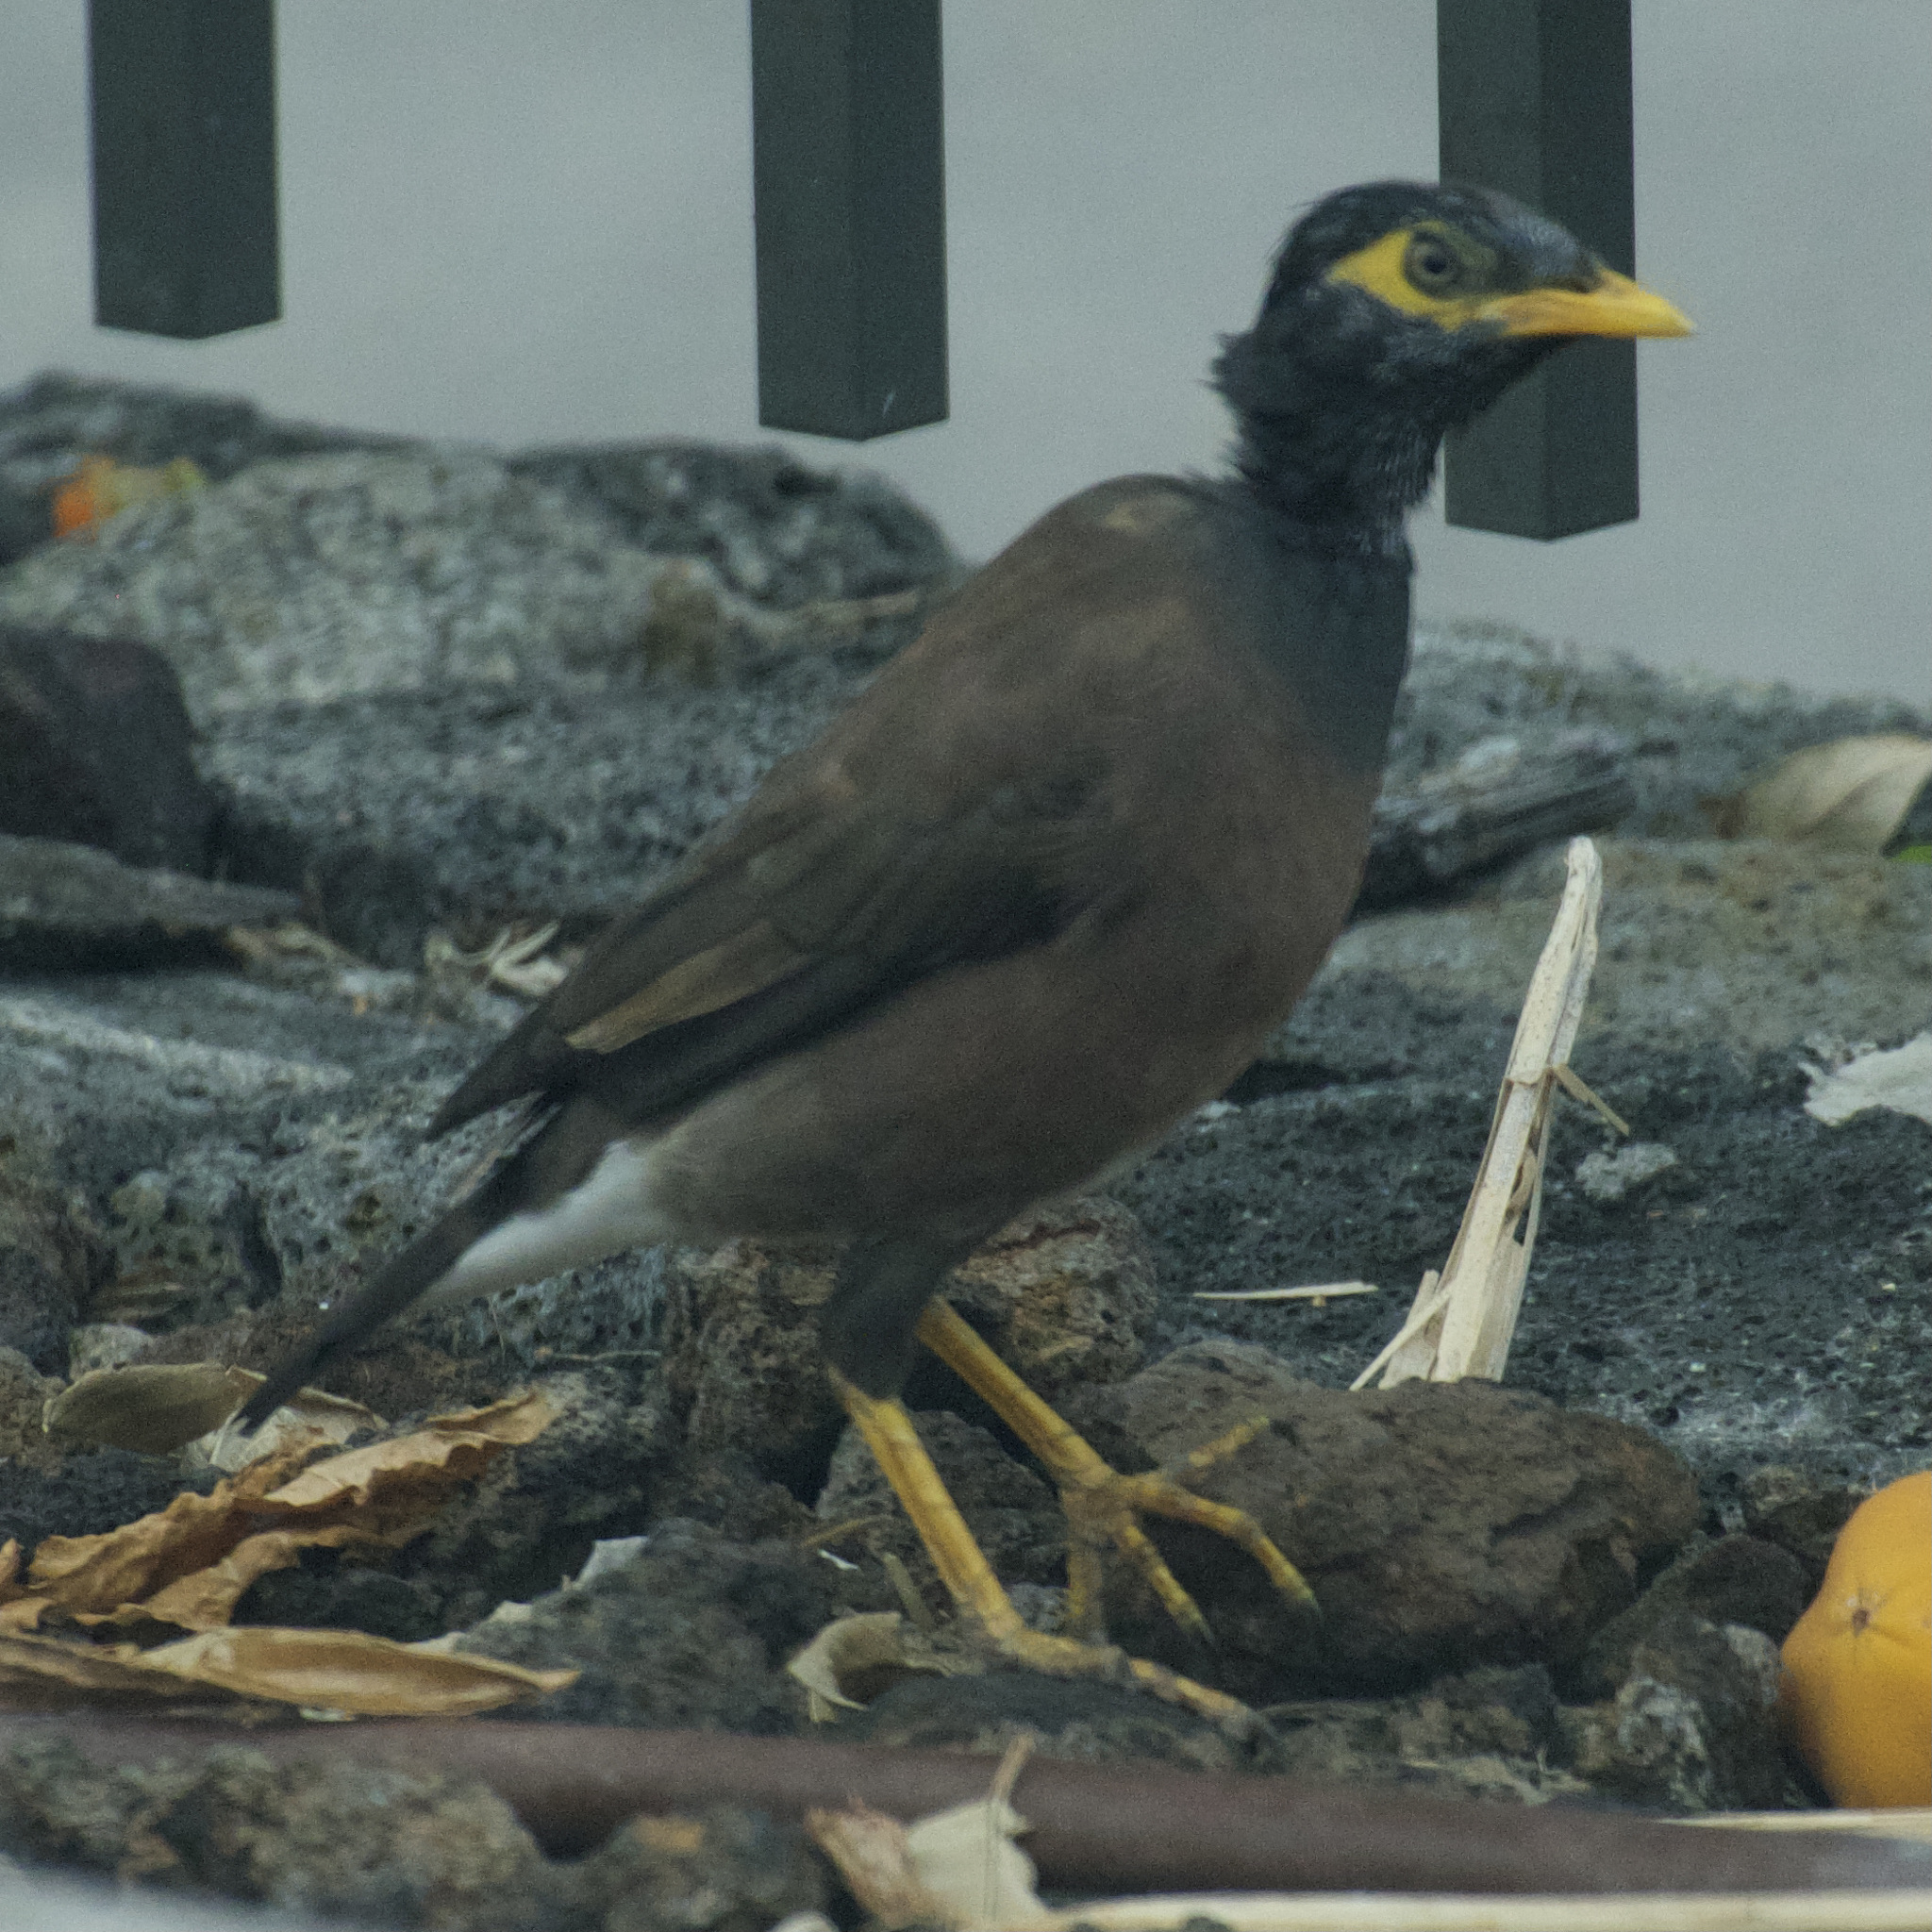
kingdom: Animalia
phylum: Chordata
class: Aves
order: Passeriformes
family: Sturnidae
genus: Acridotheres
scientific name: Acridotheres tristis
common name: Common myna
